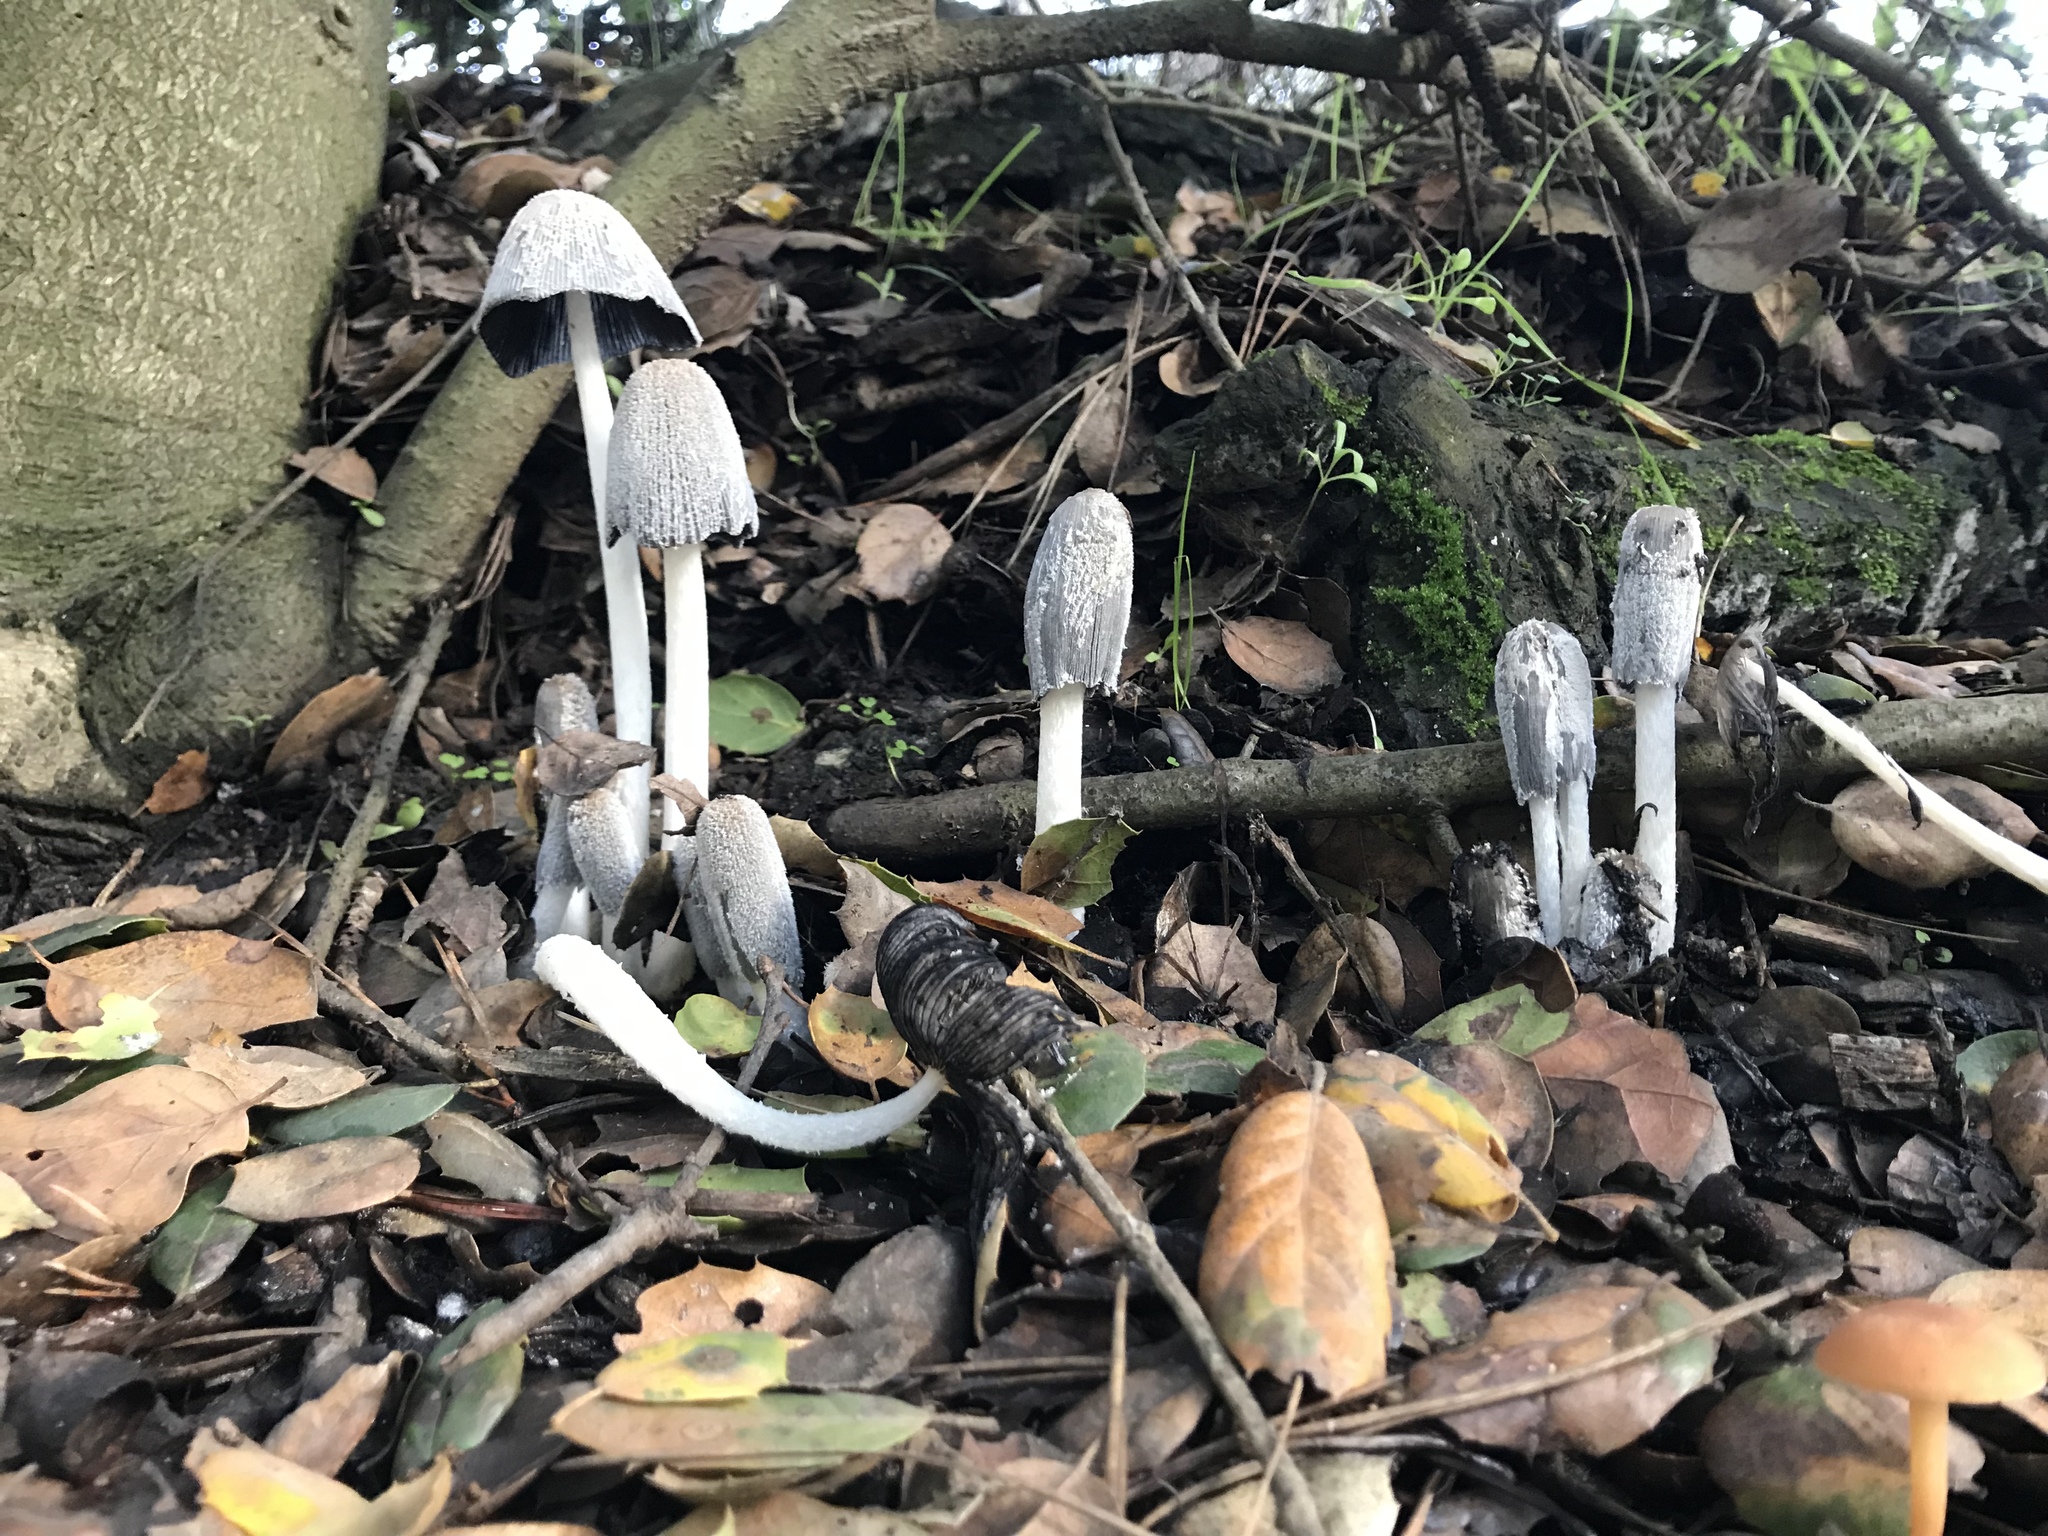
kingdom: Fungi
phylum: Basidiomycota
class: Agaricomycetes
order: Agaricales
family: Psathyrellaceae
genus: Coprinopsis
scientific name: Coprinopsis lagopus
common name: Hare'sfoot inkcap
